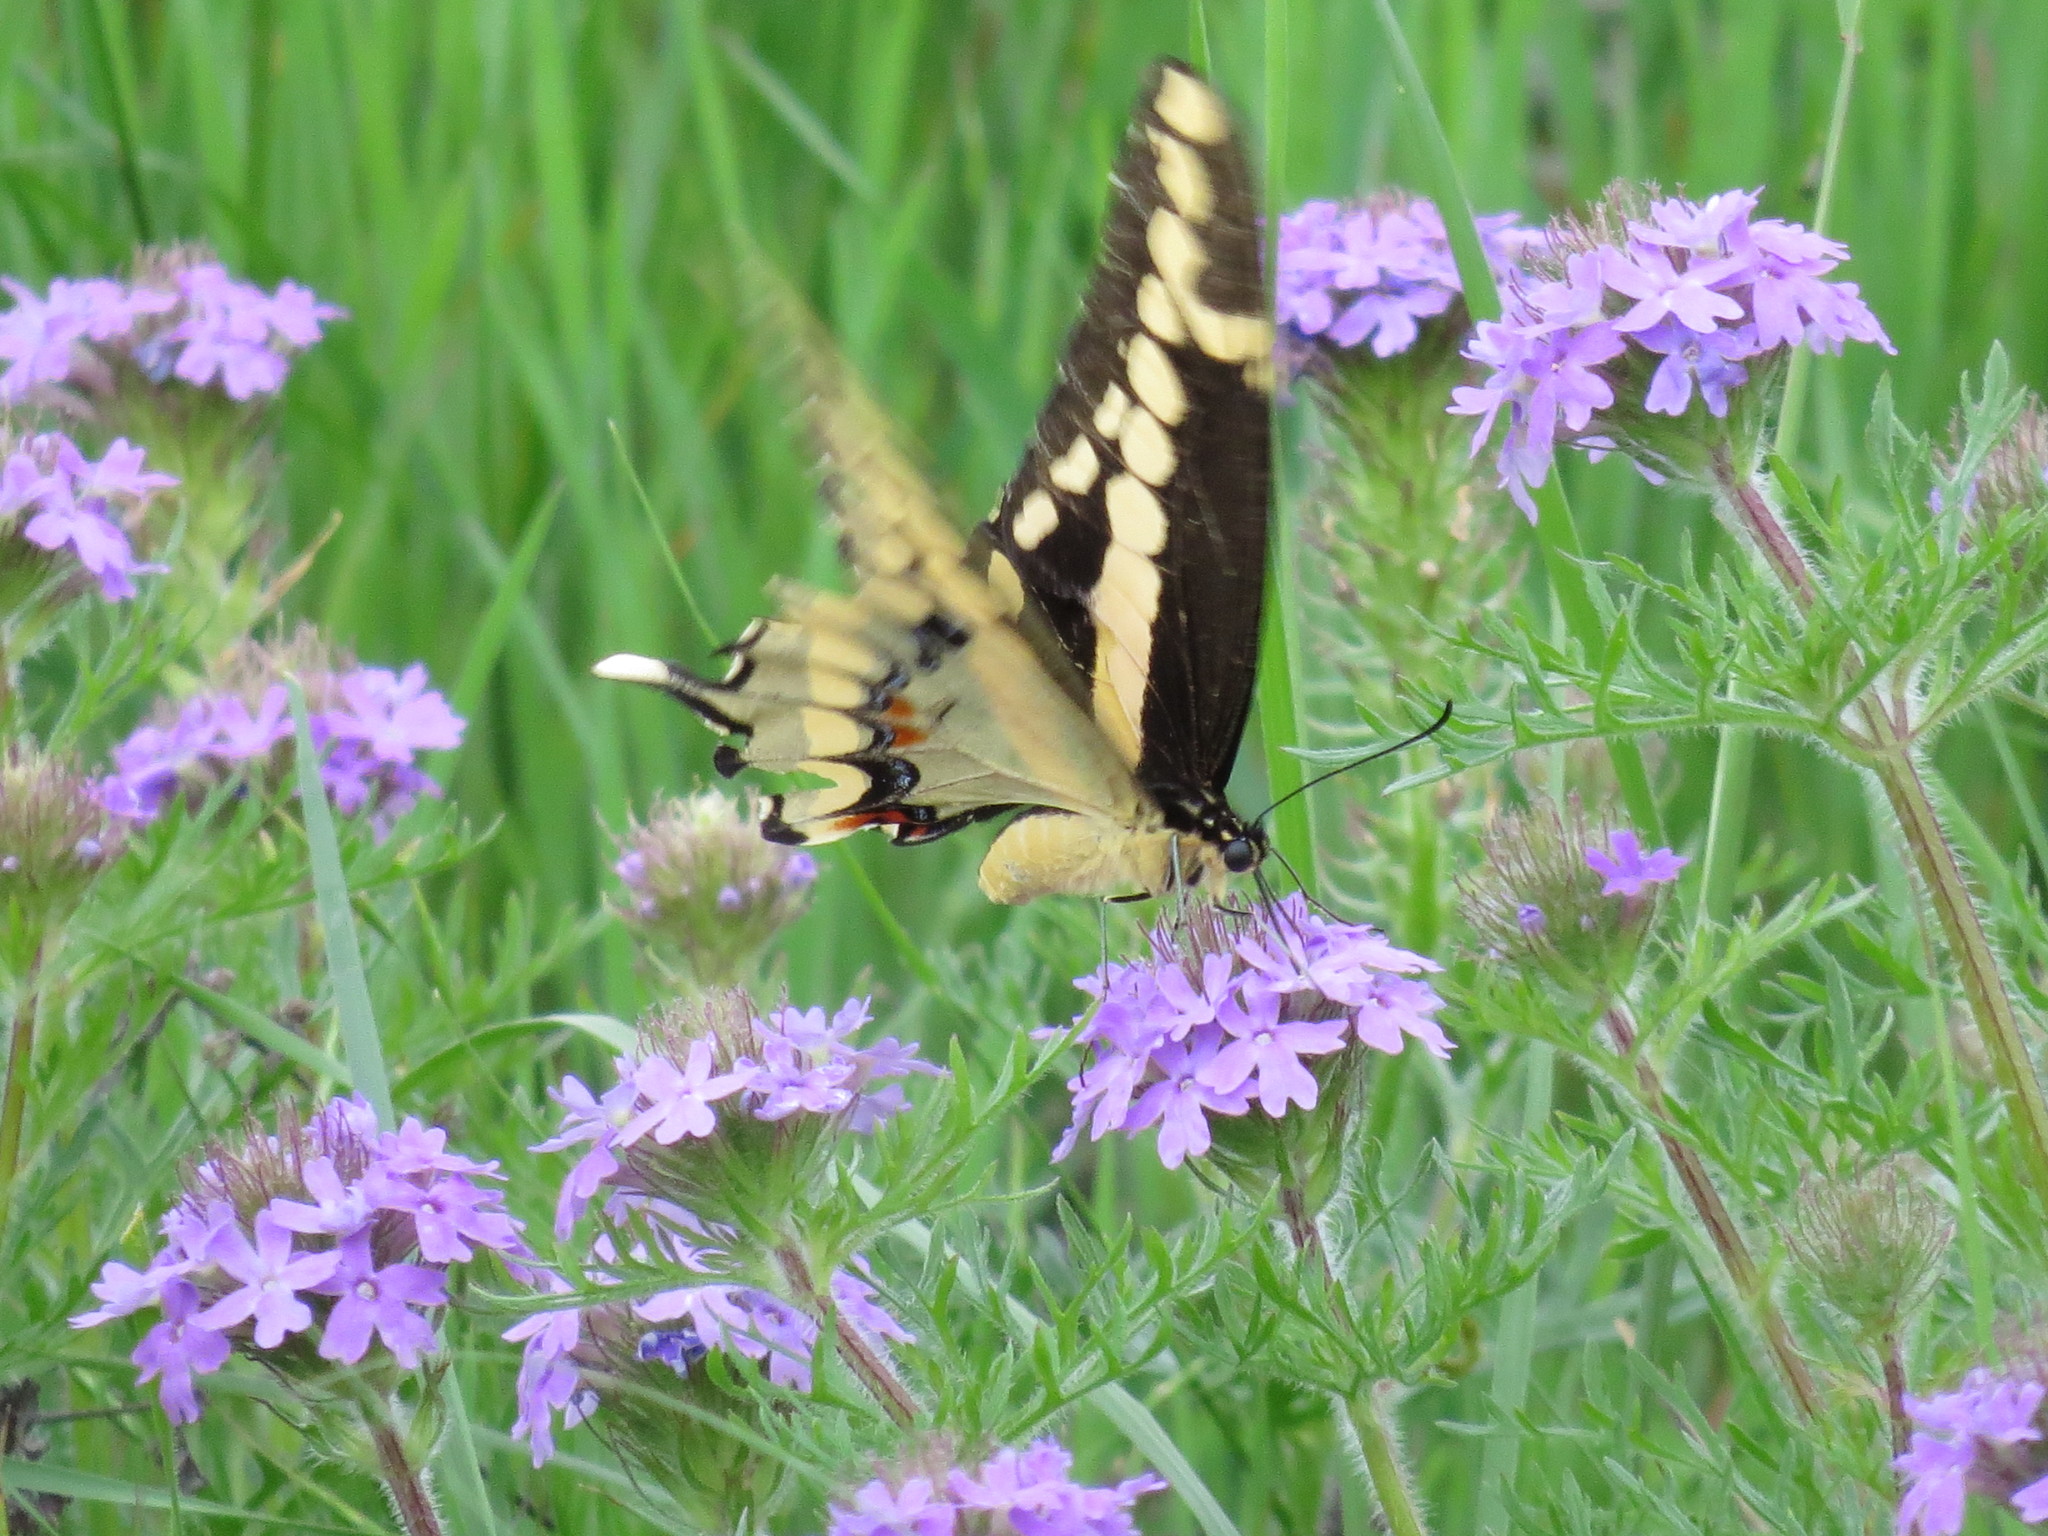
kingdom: Animalia
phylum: Arthropoda
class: Insecta
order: Lepidoptera
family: Papilionidae
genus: Papilio
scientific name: Papilio cresphontes
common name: Giant swallowtail
